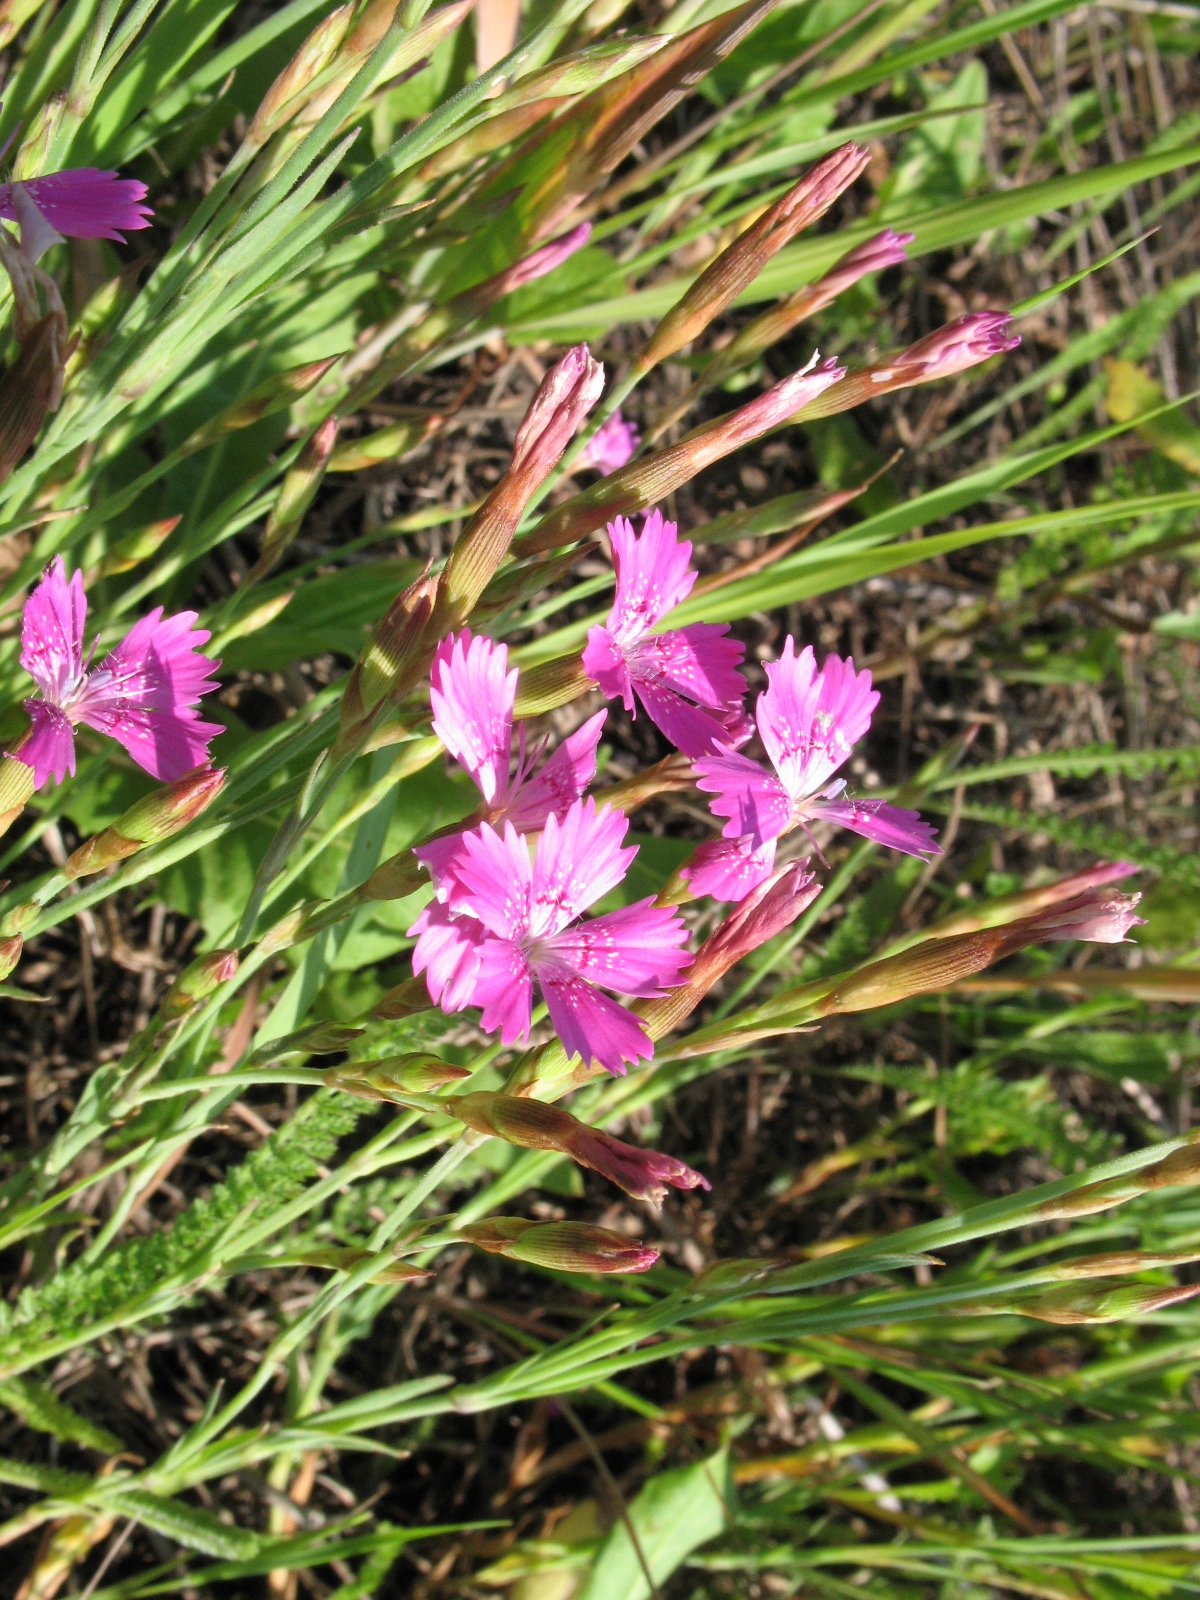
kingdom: Plantae
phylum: Tracheophyta
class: Magnoliopsida
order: Caryophyllales
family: Caryophyllaceae
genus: Dianthus
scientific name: Dianthus deltoides
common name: Maiden pink
